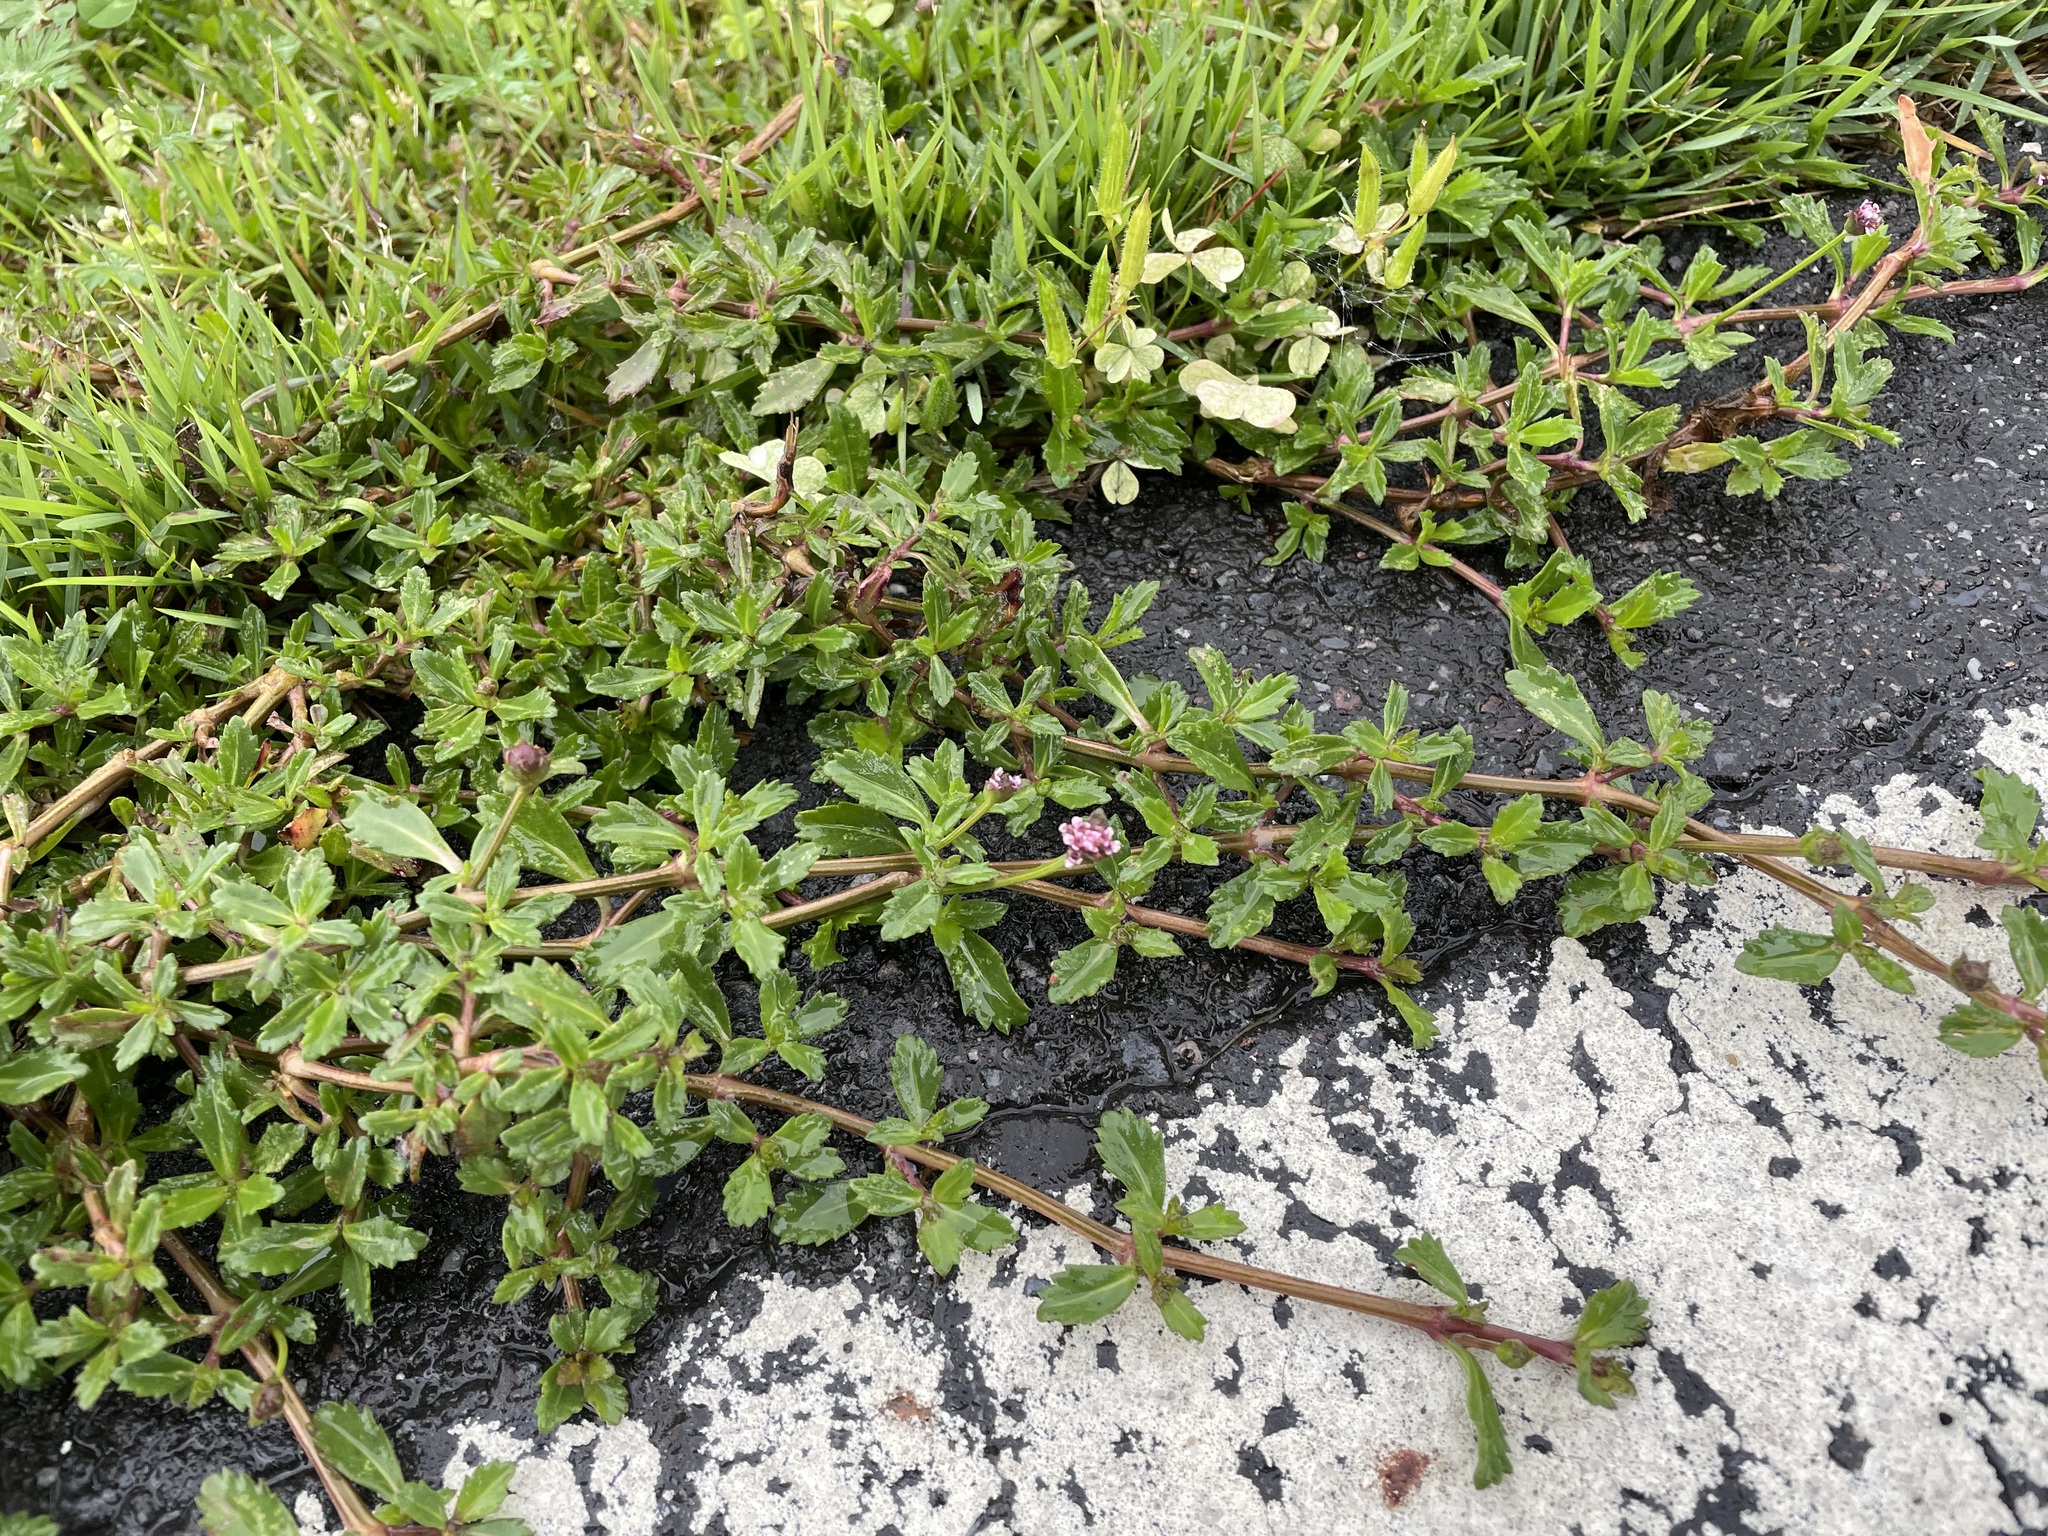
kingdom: Plantae
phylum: Tracheophyta
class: Magnoliopsida
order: Lamiales
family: Verbenaceae
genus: Phyla
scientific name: Phyla nodiflora
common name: Frogfruit
